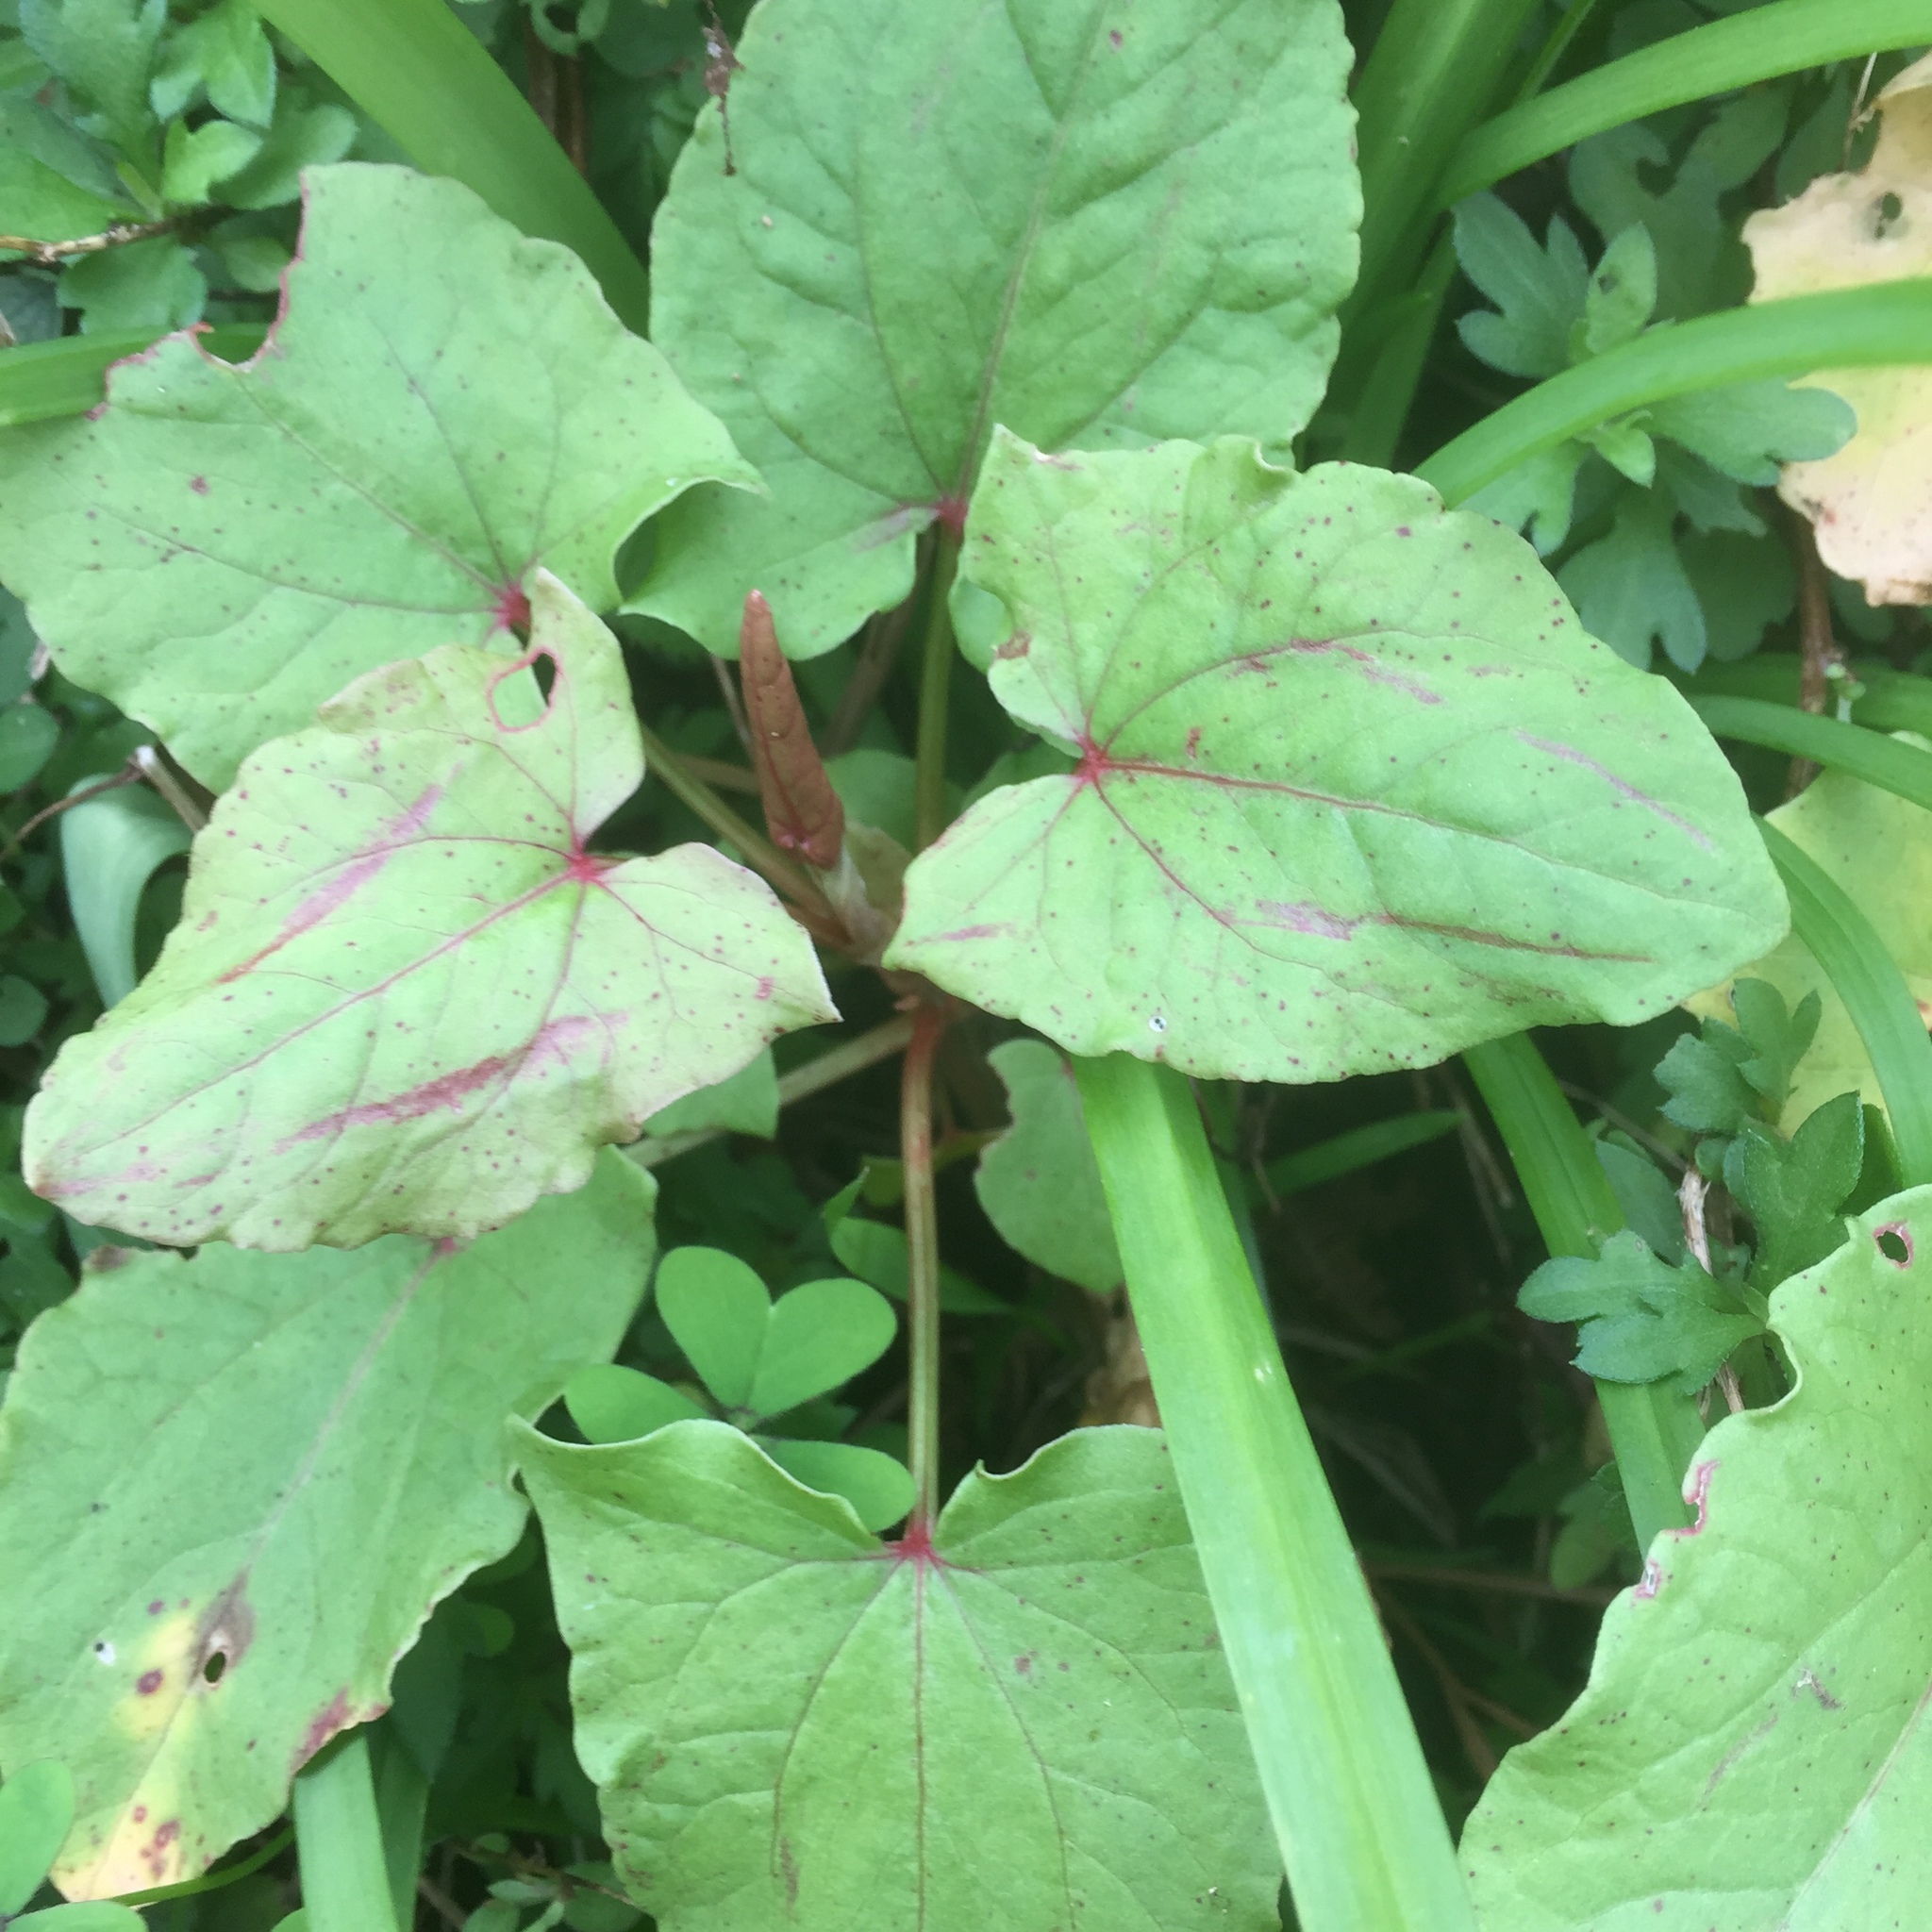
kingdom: Plantae
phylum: Tracheophyta
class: Magnoliopsida
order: Caryophyllales
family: Polygonaceae
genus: Rumex
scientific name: Rumex maderensis
